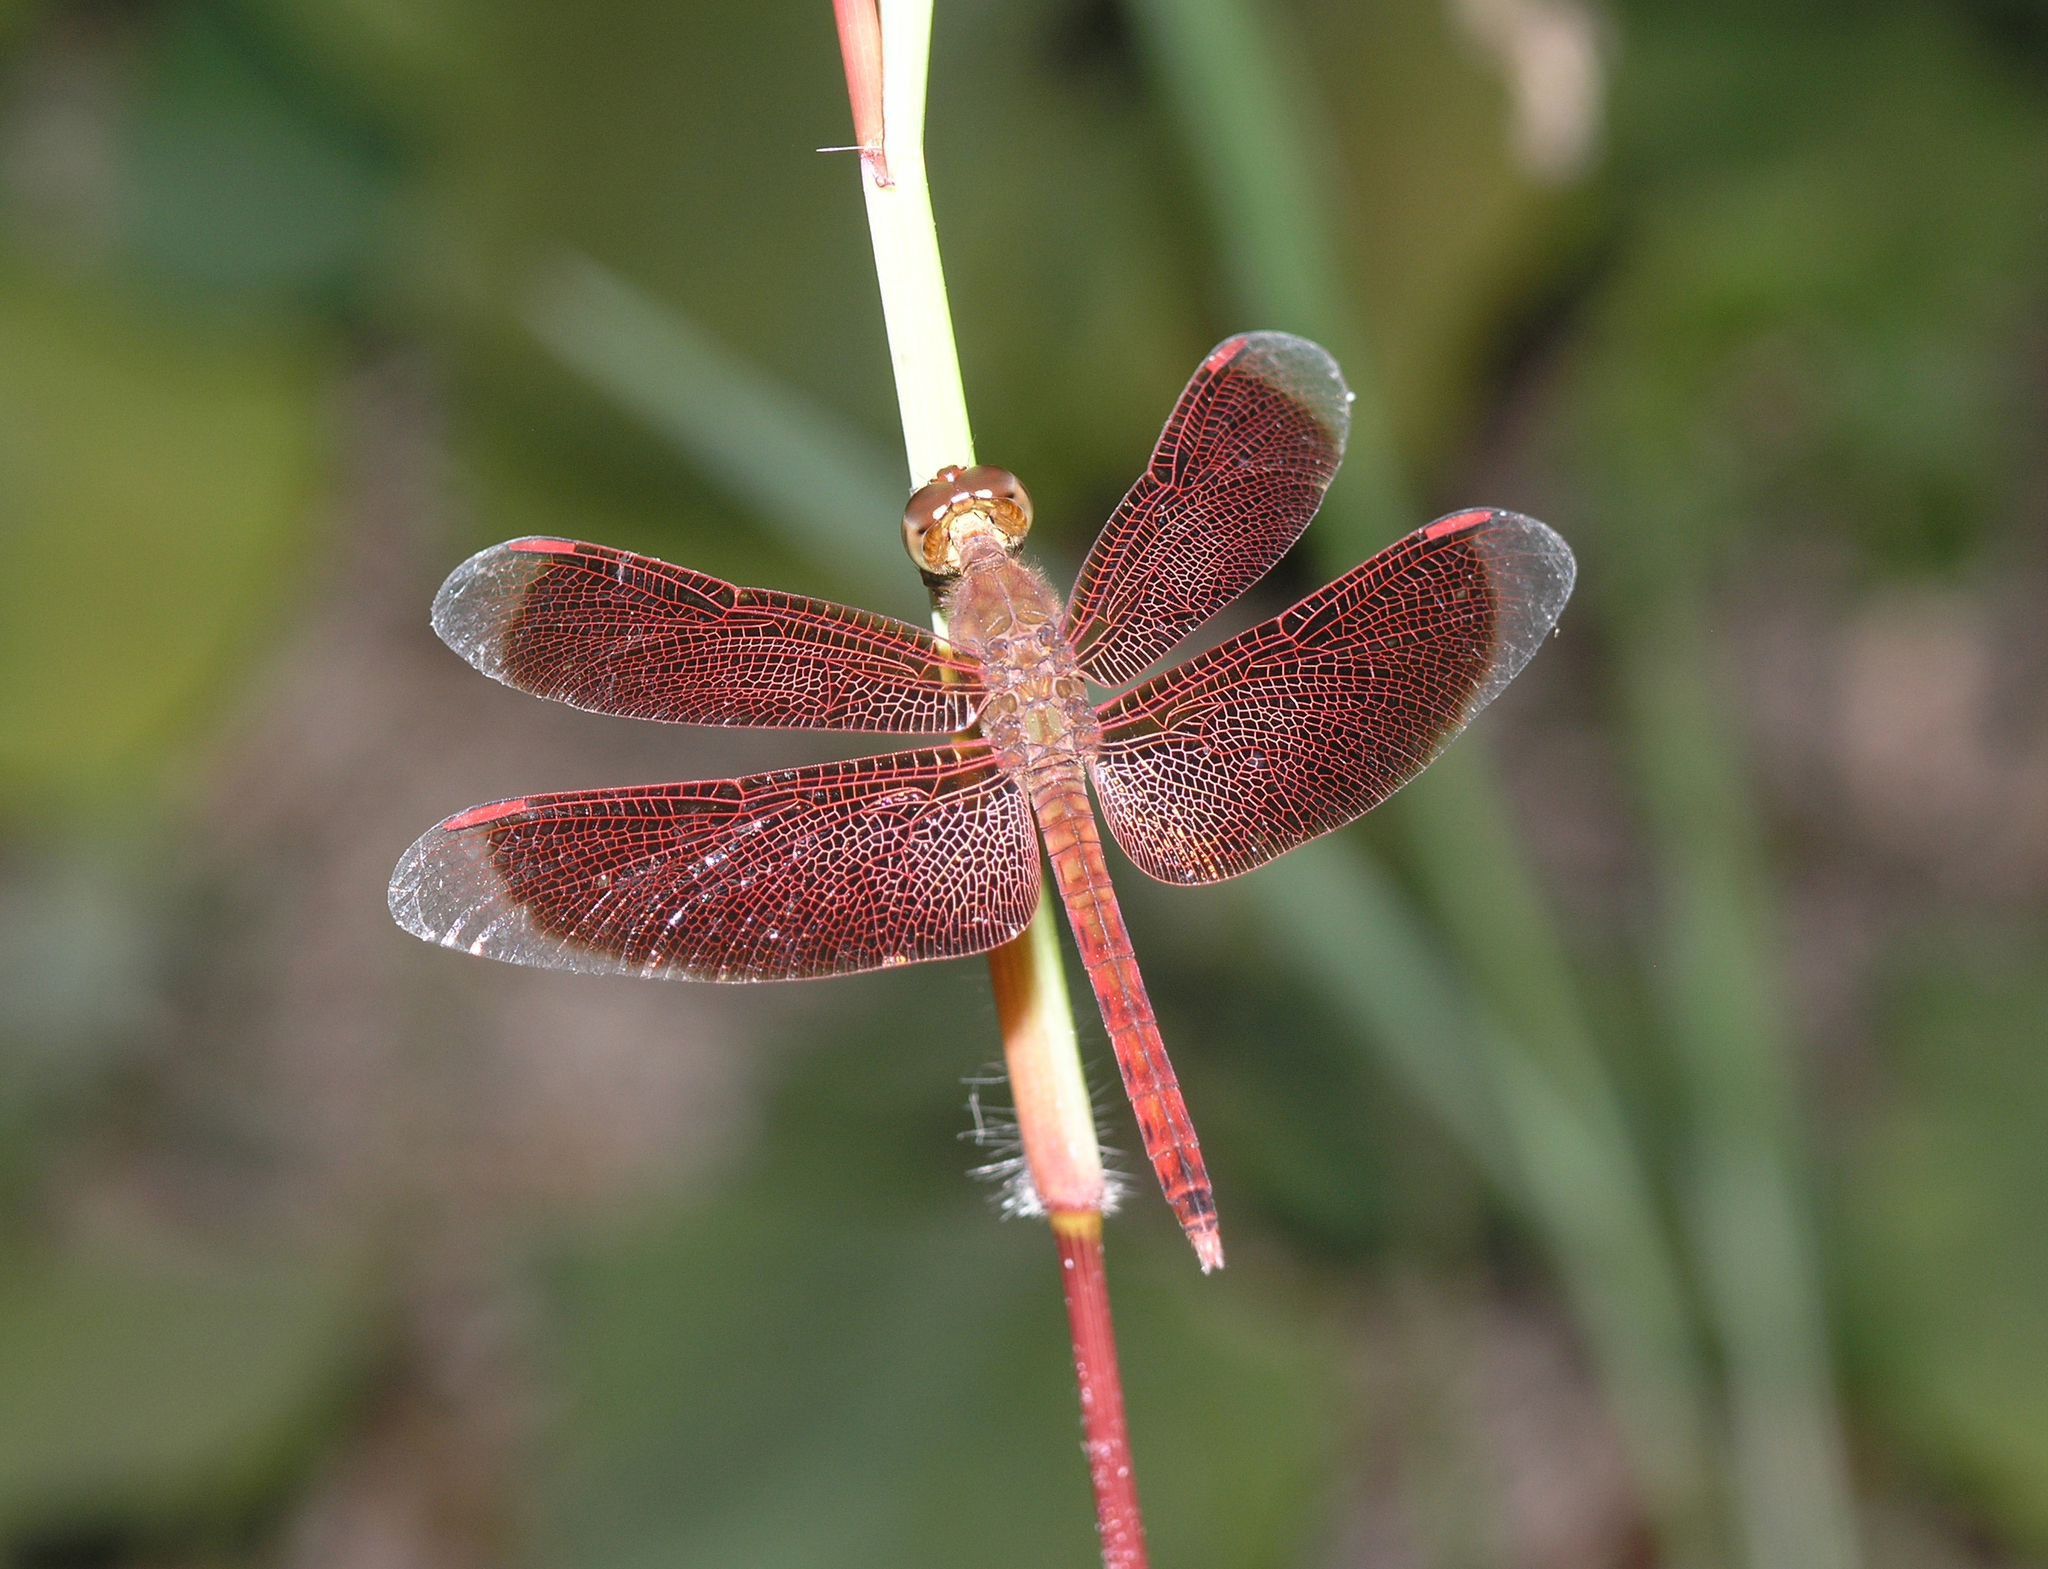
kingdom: Animalia
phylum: Arthropoda
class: Insecta
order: Odonata
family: Libellulidae
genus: Neurothemis
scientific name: Neurothemis fluctuans
